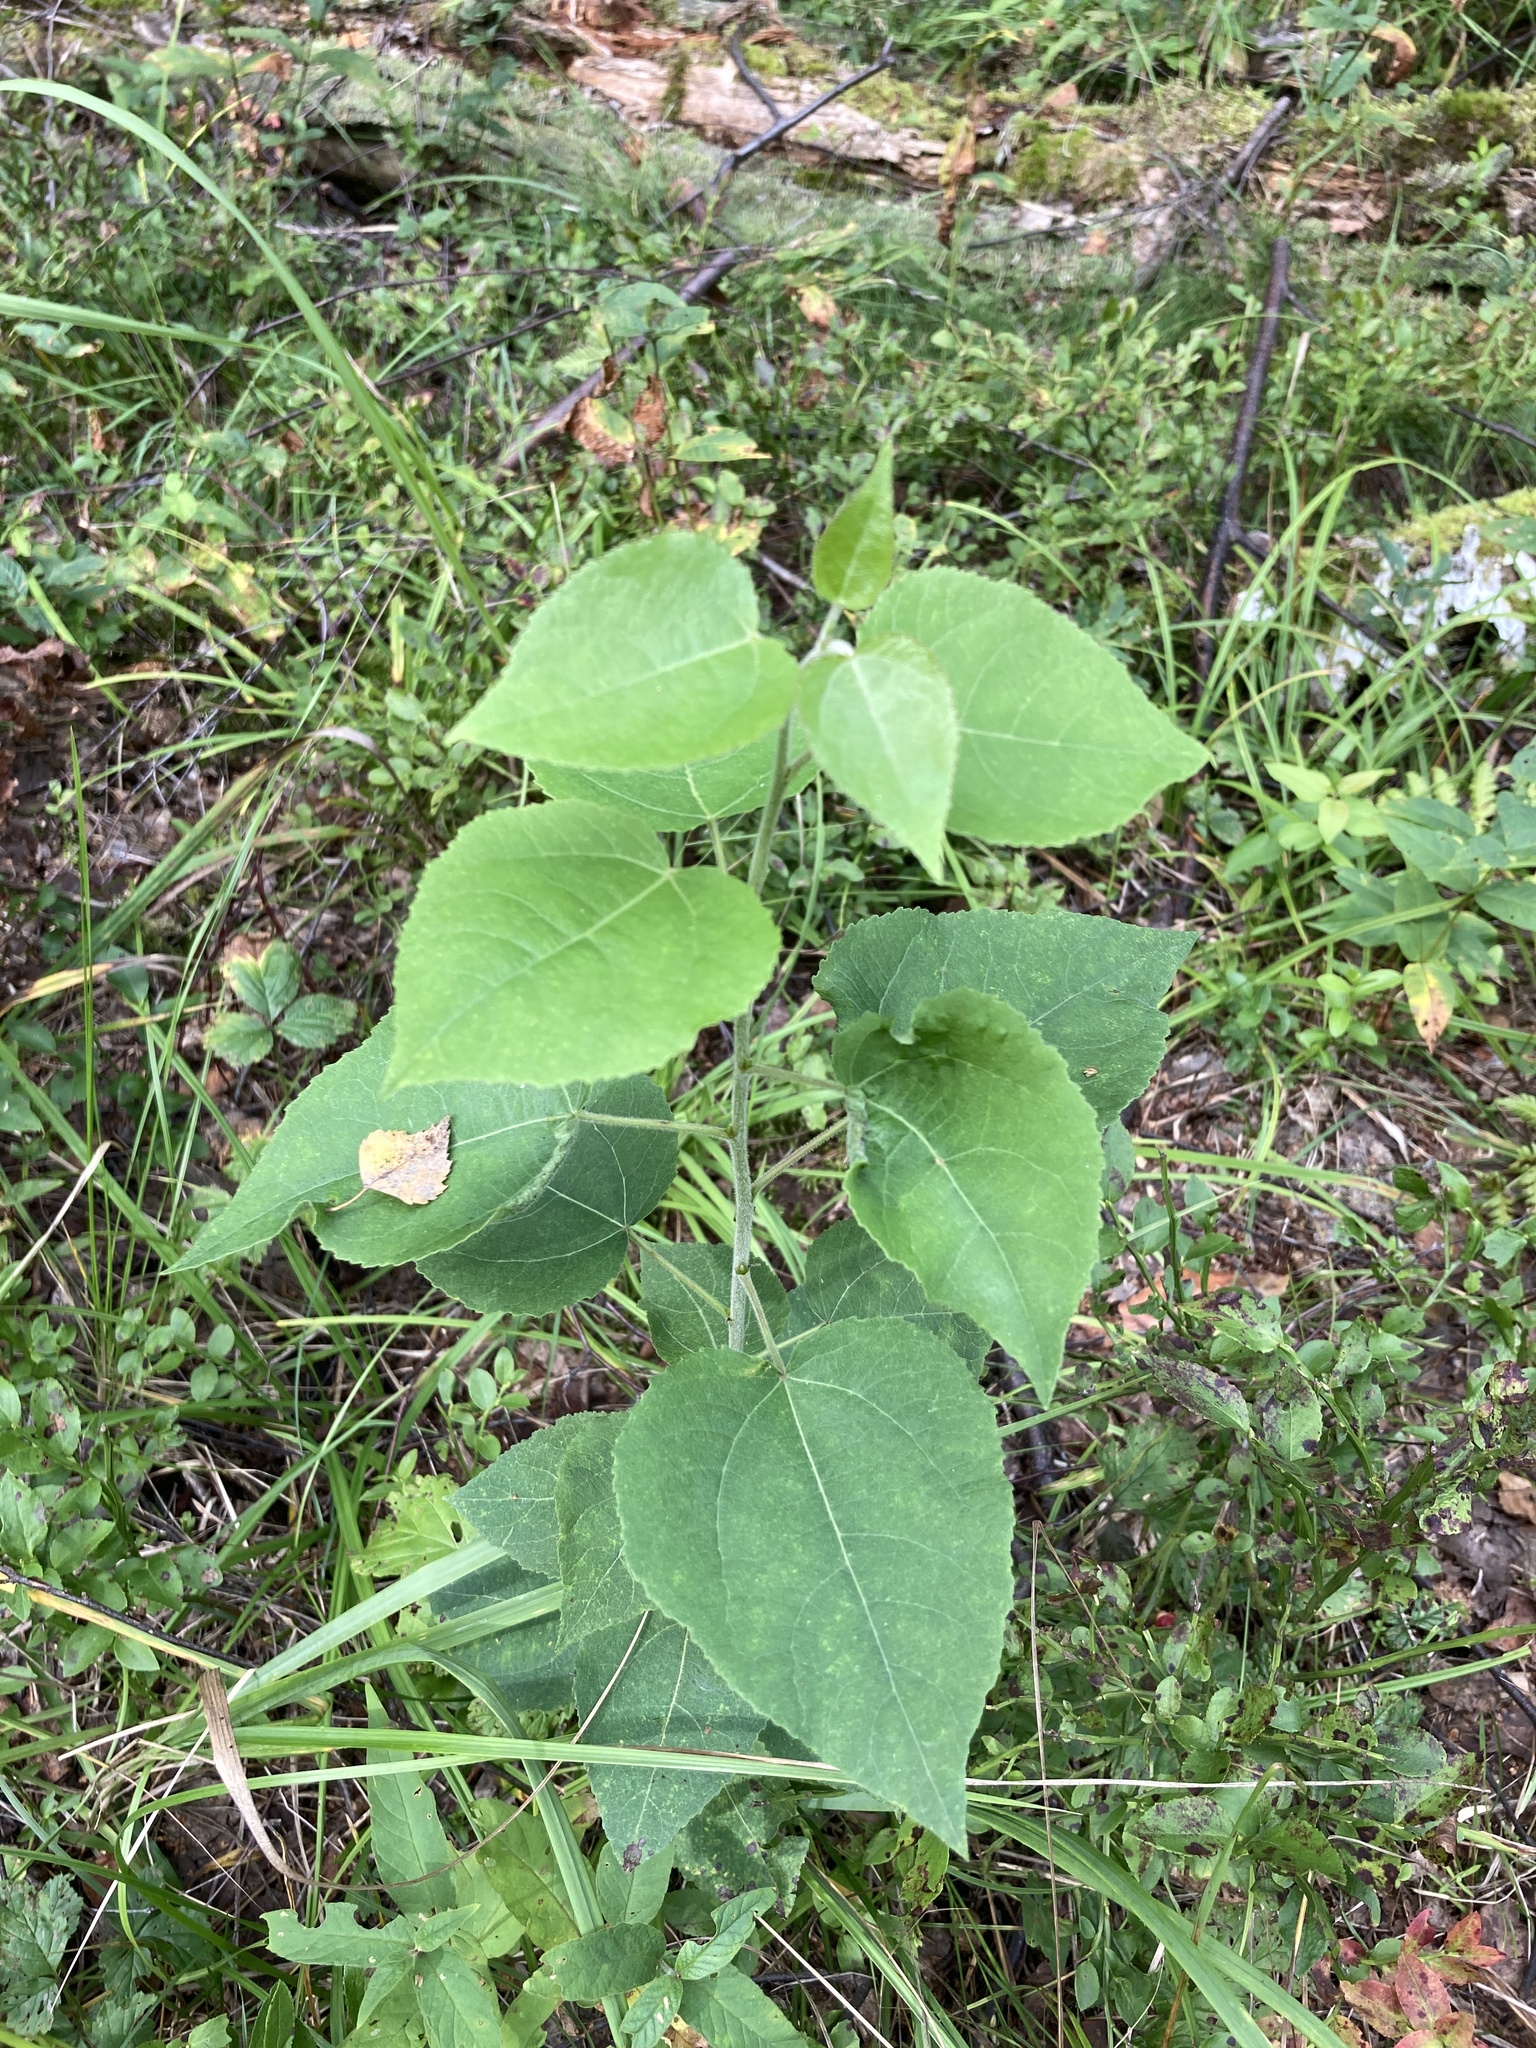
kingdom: Plantae
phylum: Tracheophyta
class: Magnoliopsida
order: Malpighiales
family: Salicaceae
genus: Populus
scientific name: Populus tremula
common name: European aspen
